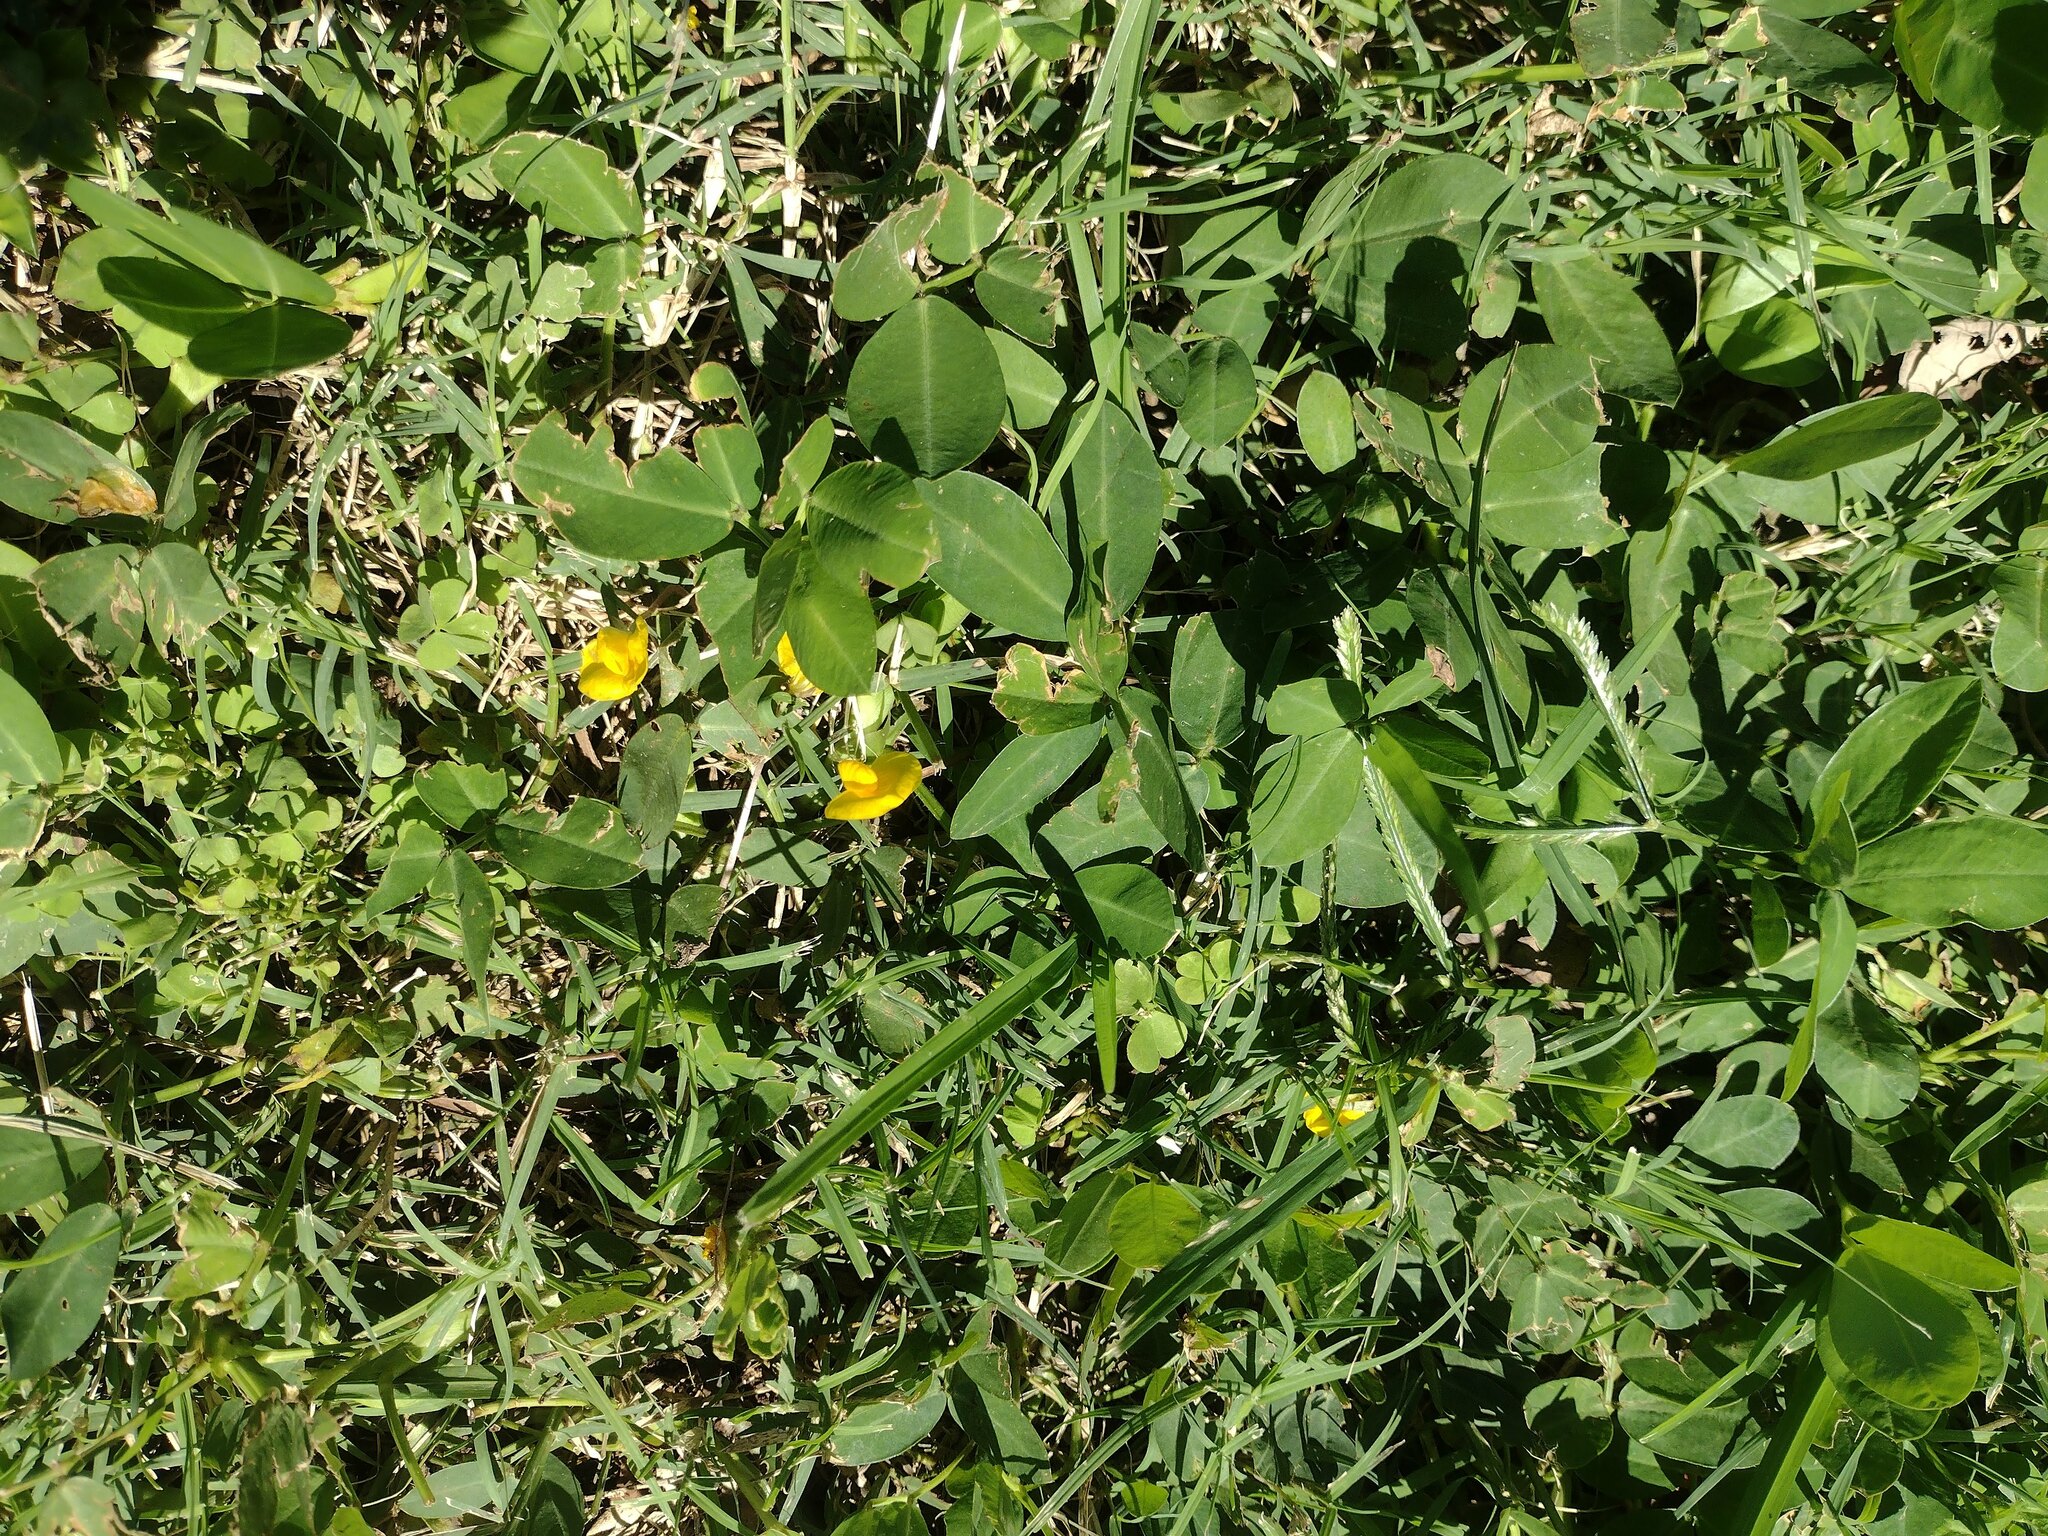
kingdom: Plantae
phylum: Tracheophyta
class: Magnoliopsida
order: Fabales
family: Fabaceae
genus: Arachis
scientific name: Arachis pintoi
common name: Pinto peanut
